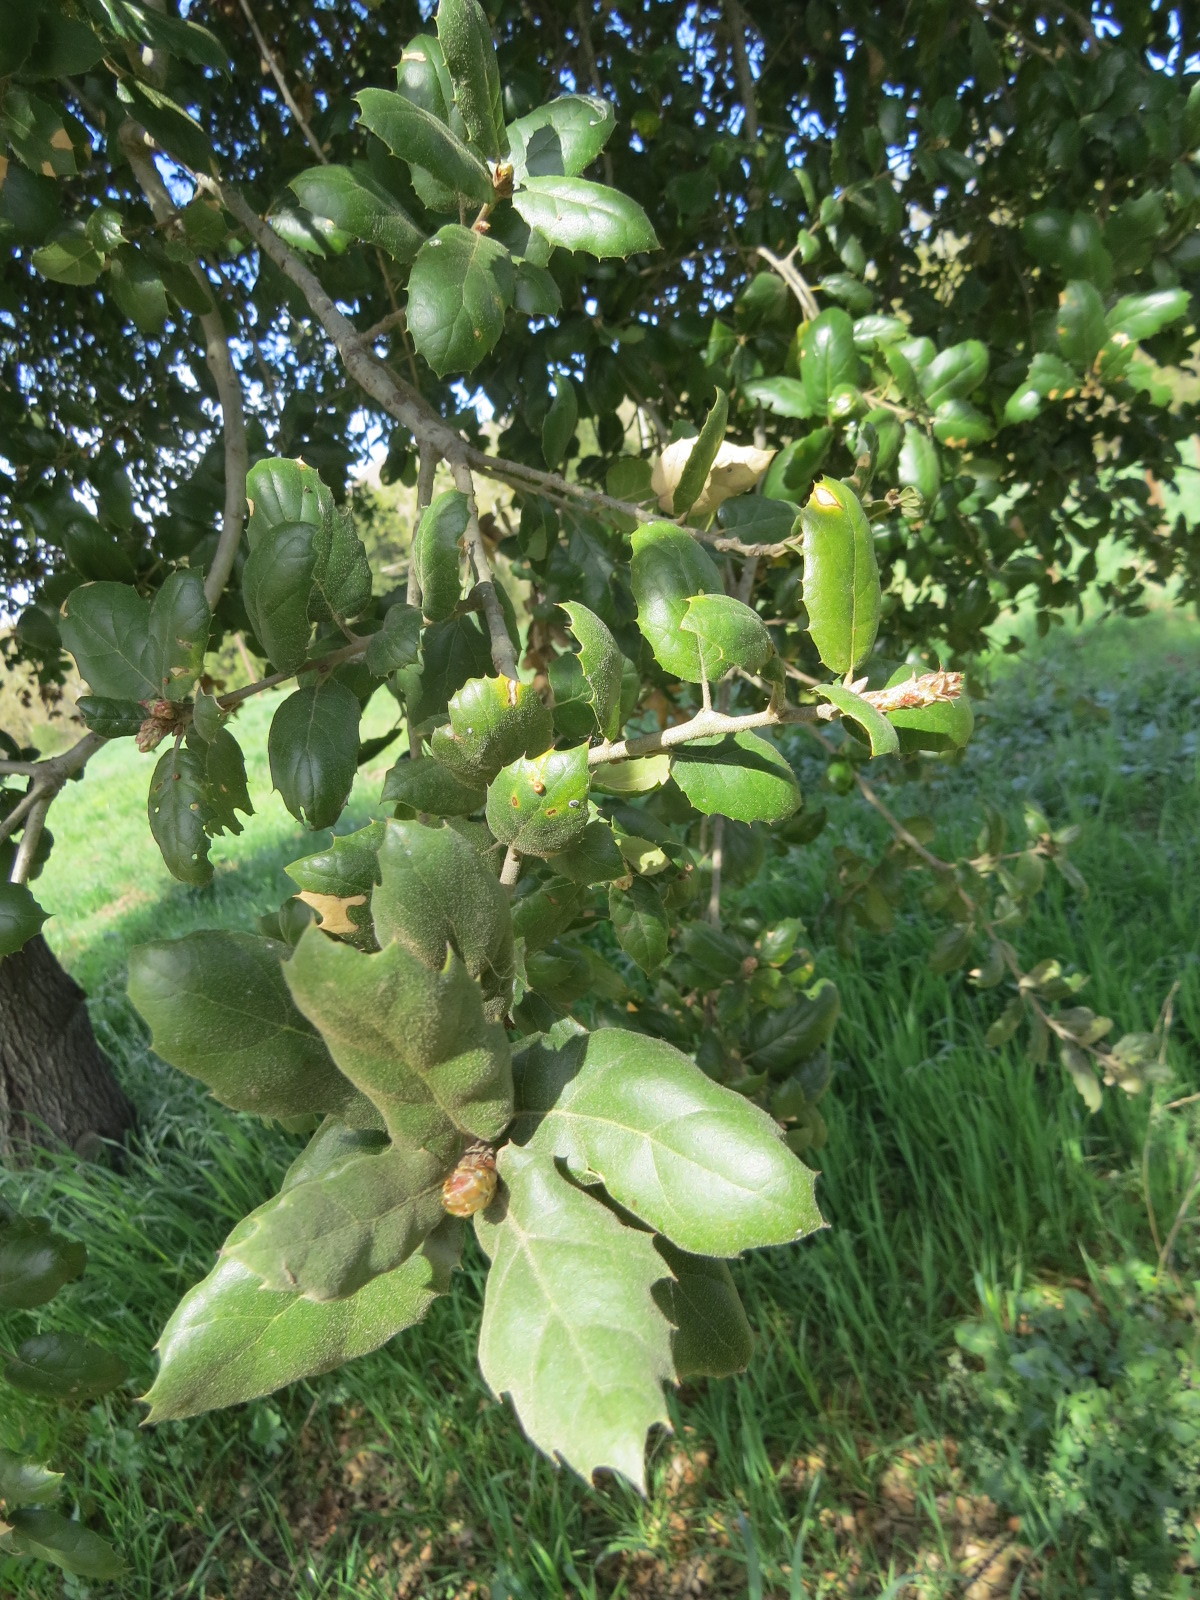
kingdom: Plantae
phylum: Tracheophyta
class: Magnoliopsida
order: Fagales
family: Fagaceae
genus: Quercus
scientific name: Quercus agrifolia
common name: California live oak
